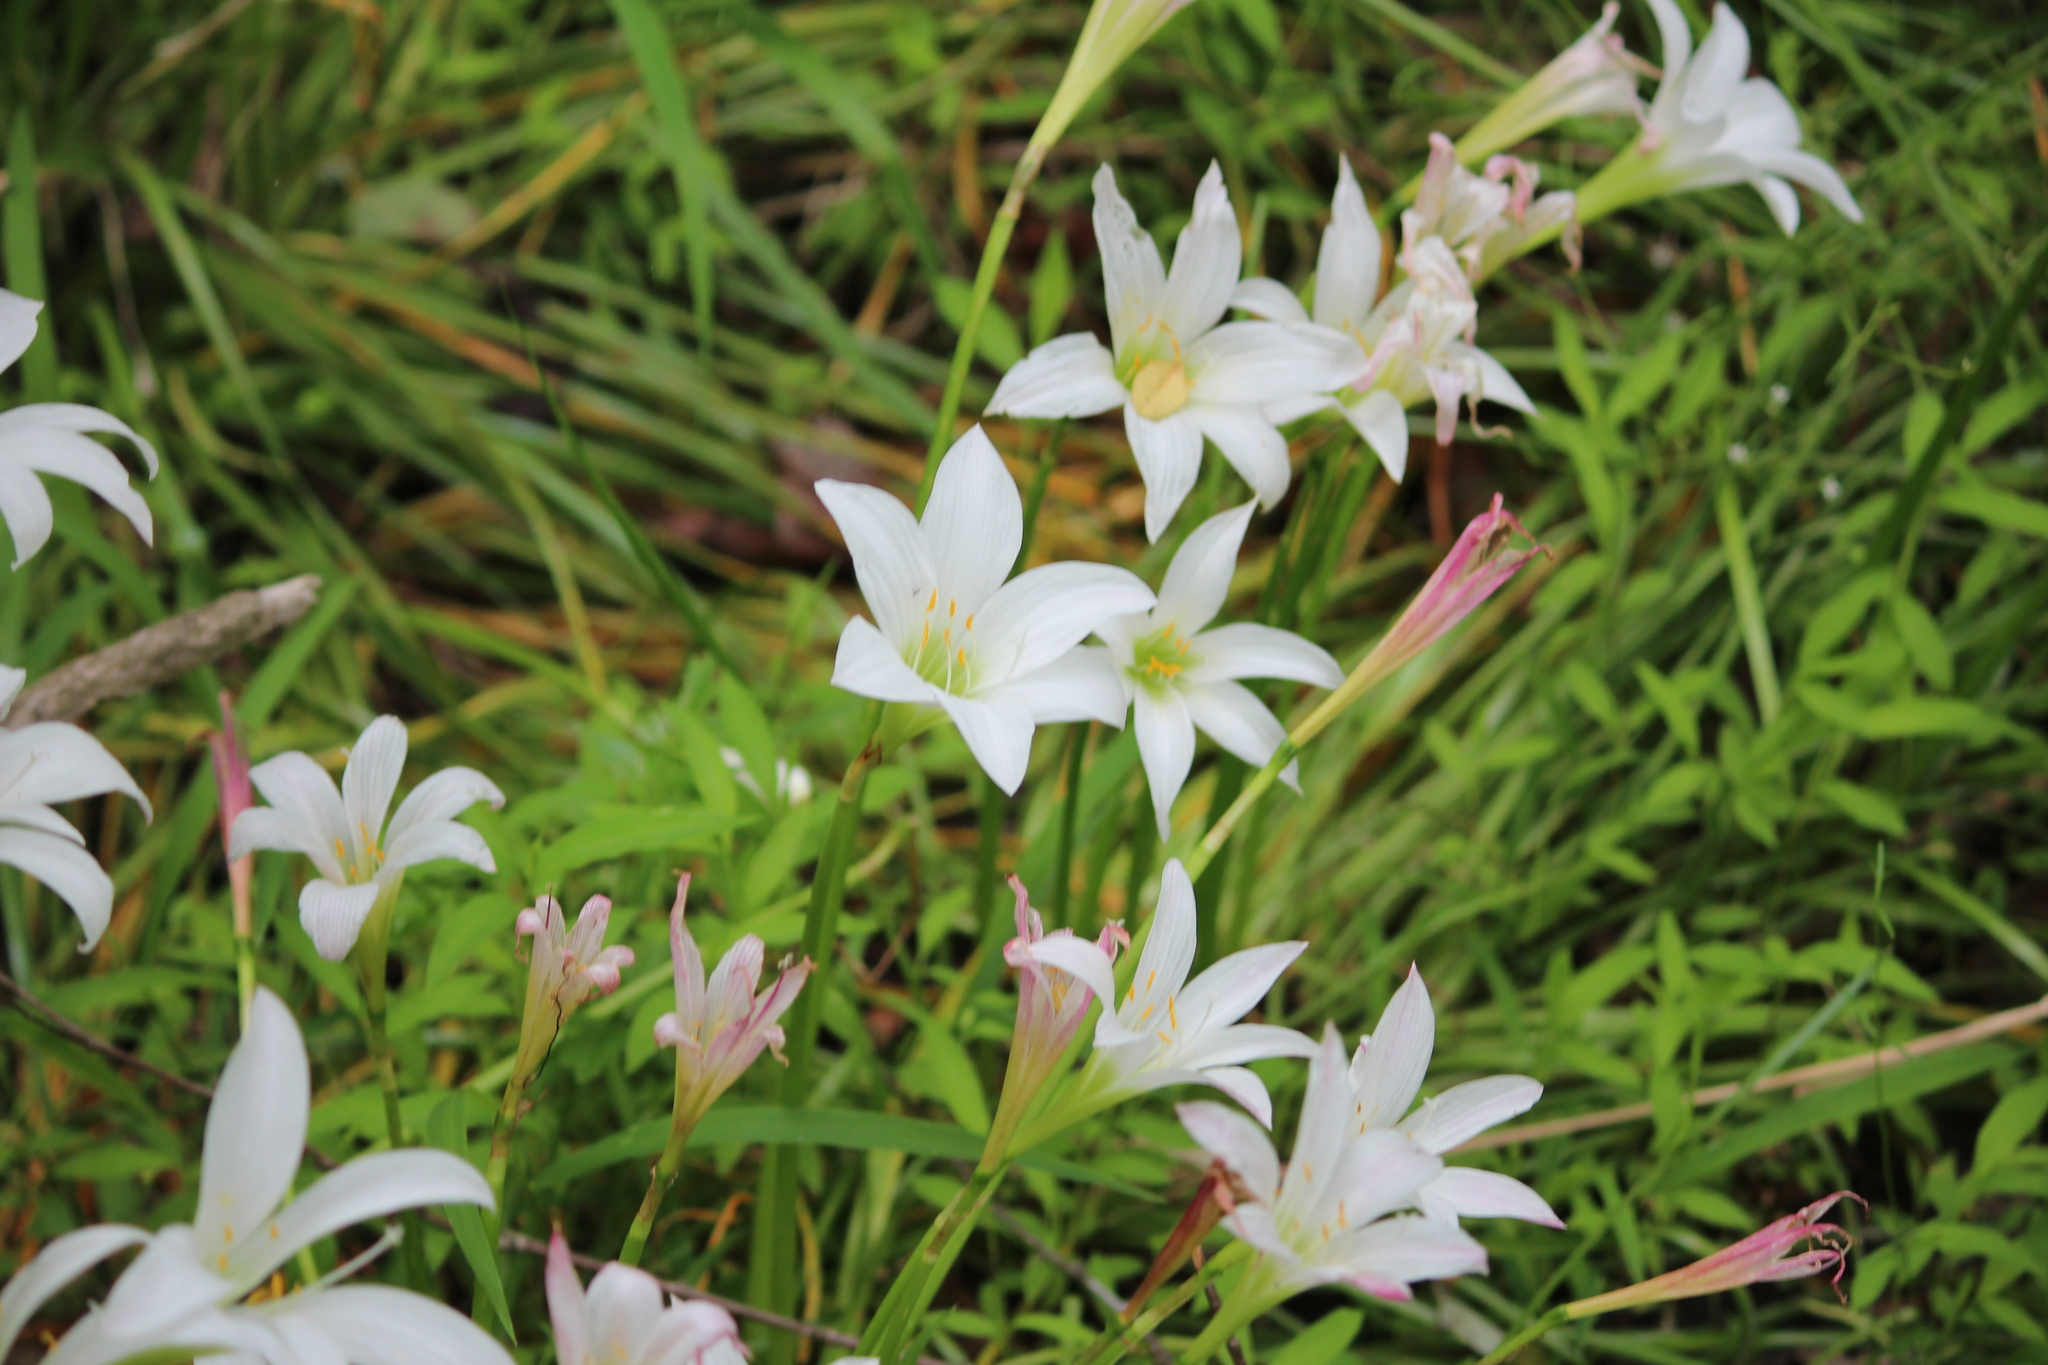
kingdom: Plantae
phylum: Tracheophyta
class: Liliopsida
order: Asparagales
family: Amaryllidaceae
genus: Zephyranthes
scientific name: Zephyranthes atamasco
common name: Atamasco lily
